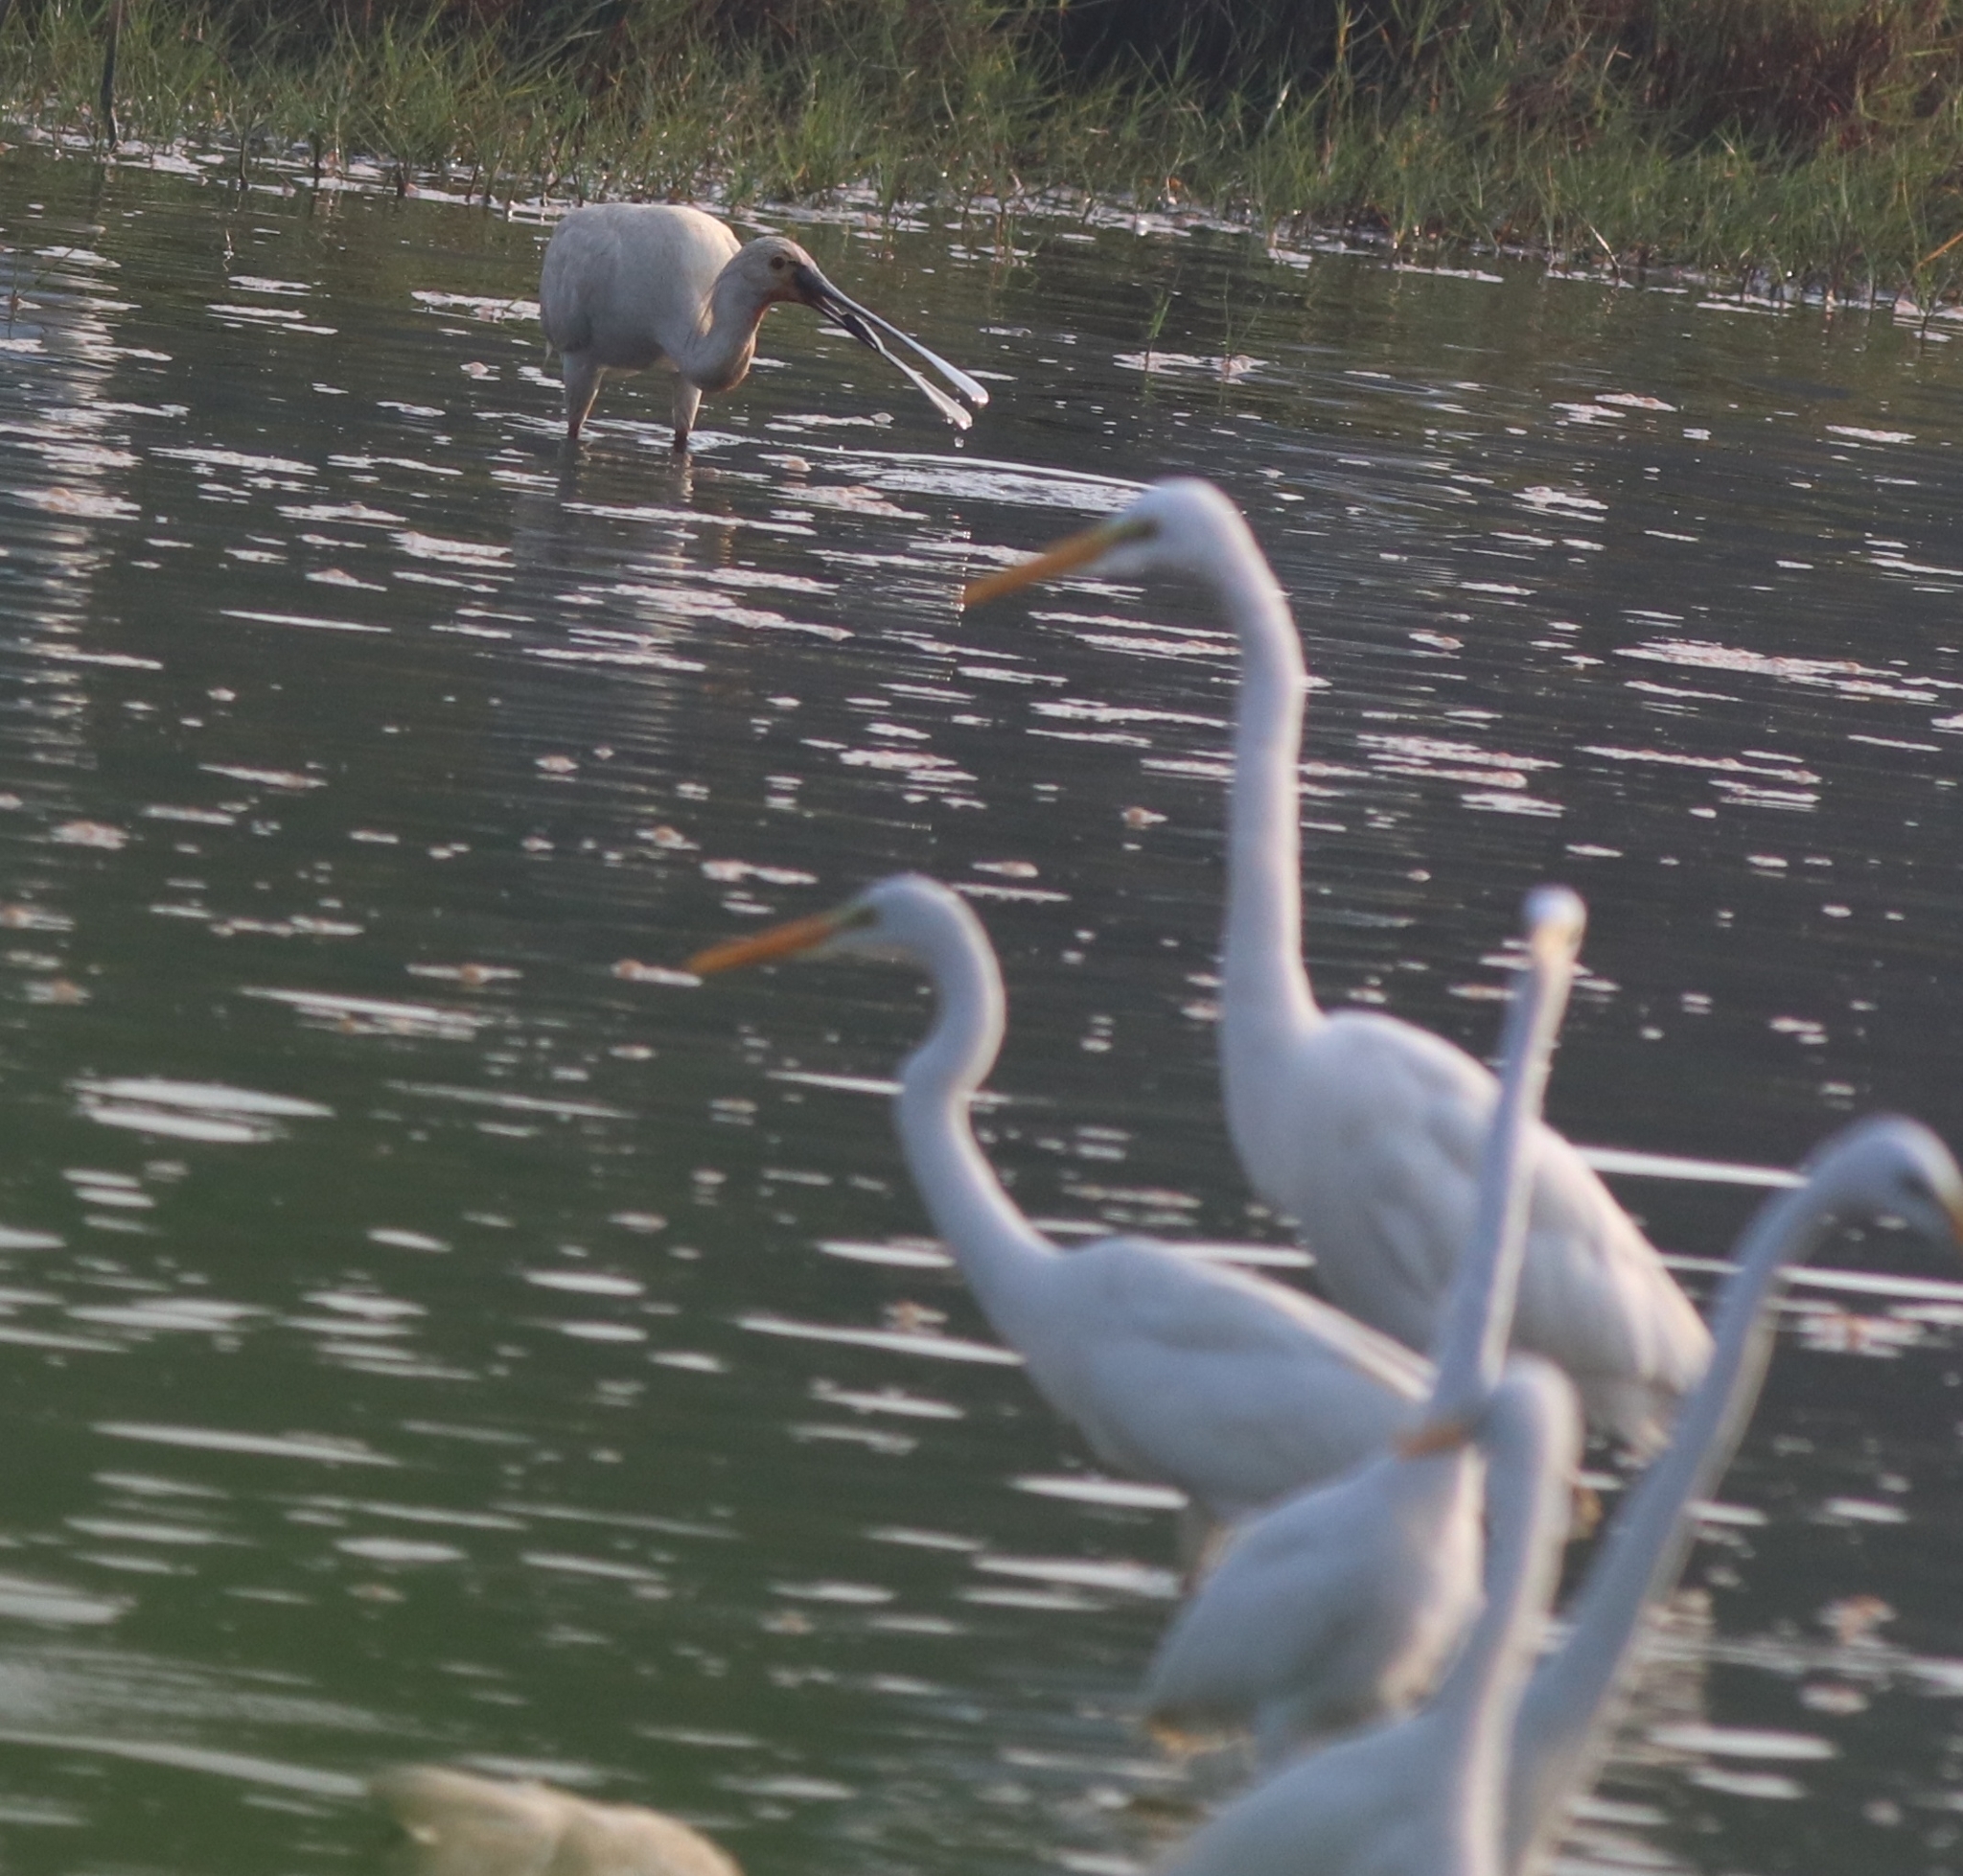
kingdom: Animalia
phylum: Chordata
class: Aves
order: Pelecaniformes
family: Ardeidae
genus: Ardea
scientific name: Ardea alba
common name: Great egret
